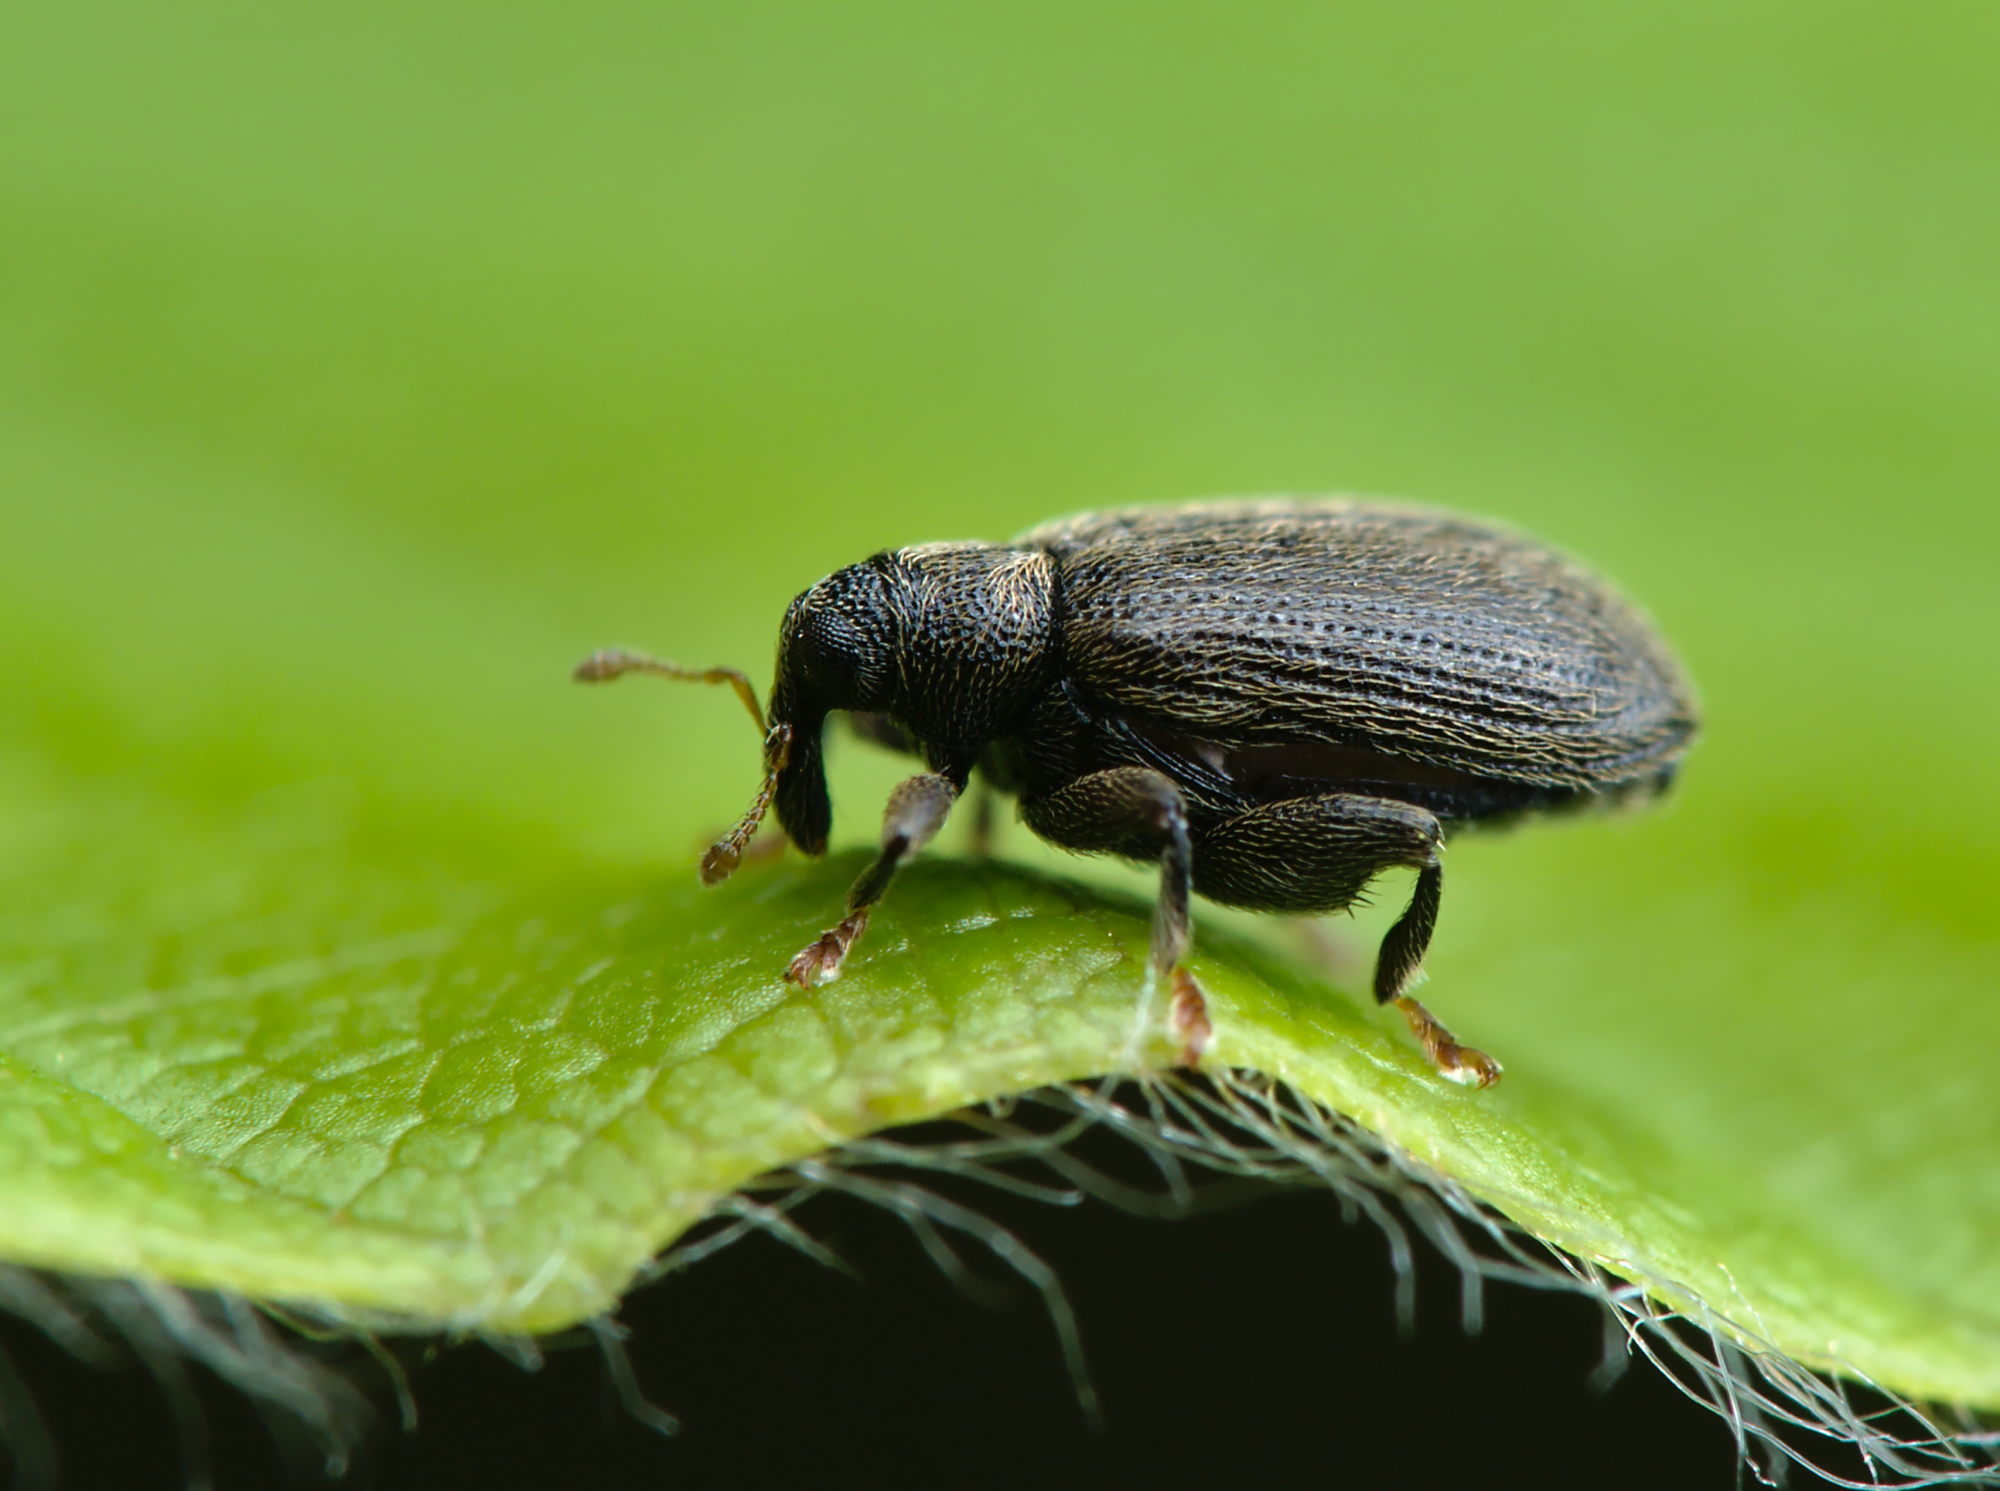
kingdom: Animalia
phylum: Arthropoda
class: Insecta
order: Coleoptera
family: Curculionidae
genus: Orchestes
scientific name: Orchestes fagi
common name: Beech leaf miner
